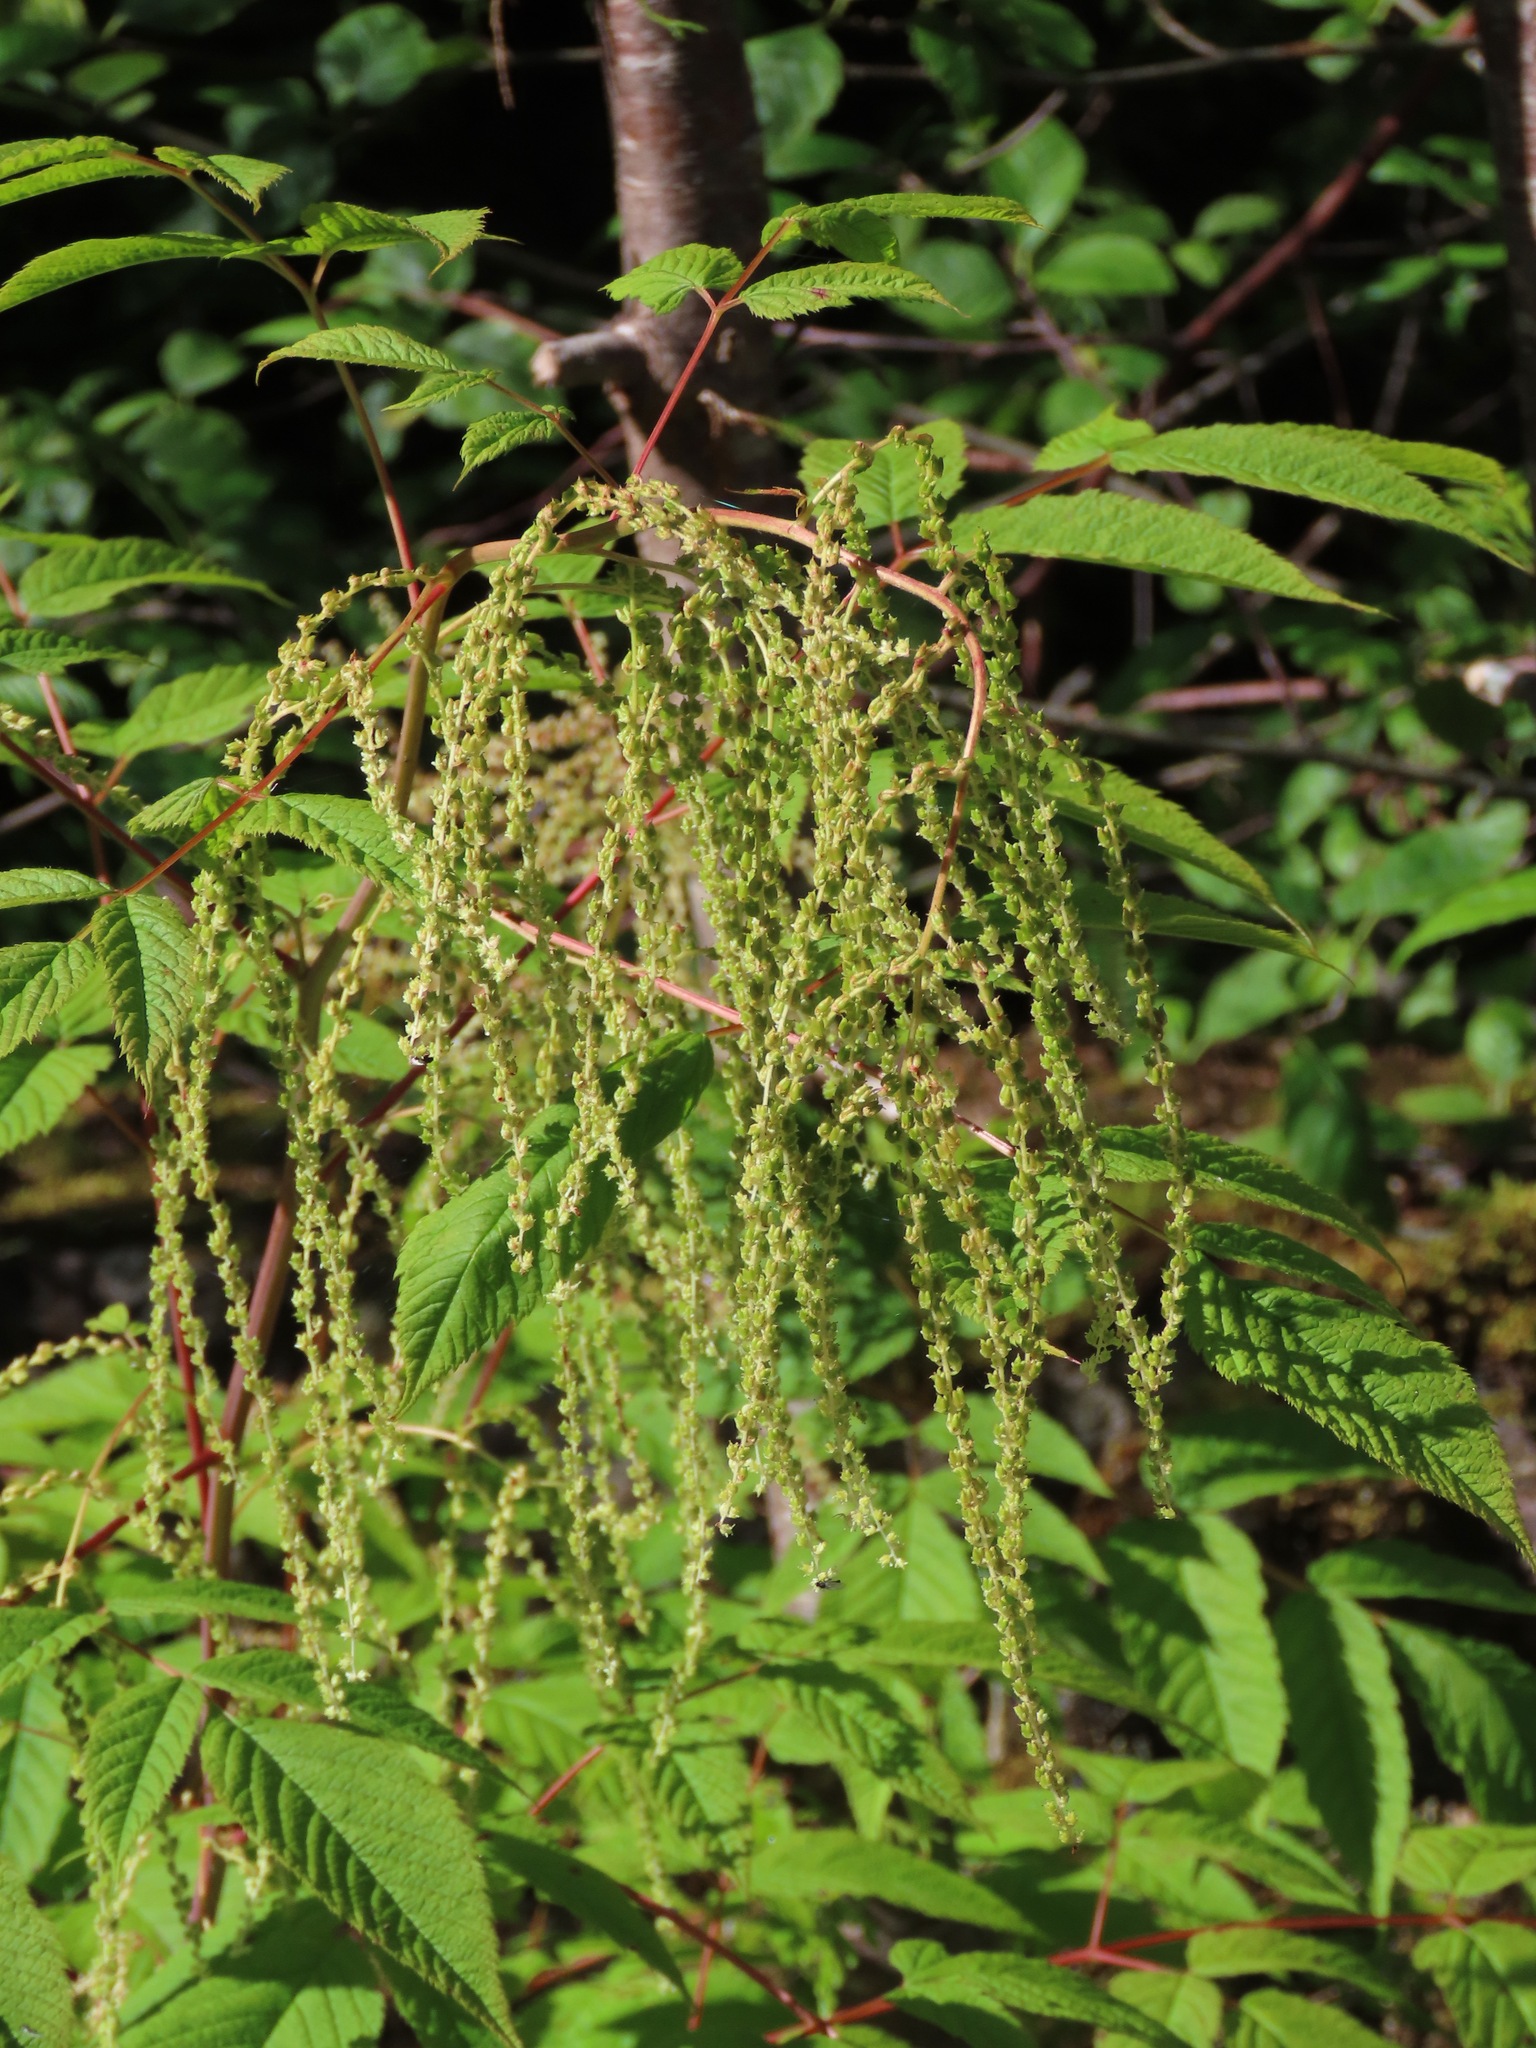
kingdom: Plantae
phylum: Tracheophyta
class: Magnoliopsida
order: Rosales
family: Rosaceae
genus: Aruncus
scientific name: Aruncus dioicus
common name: Buck's-beard
